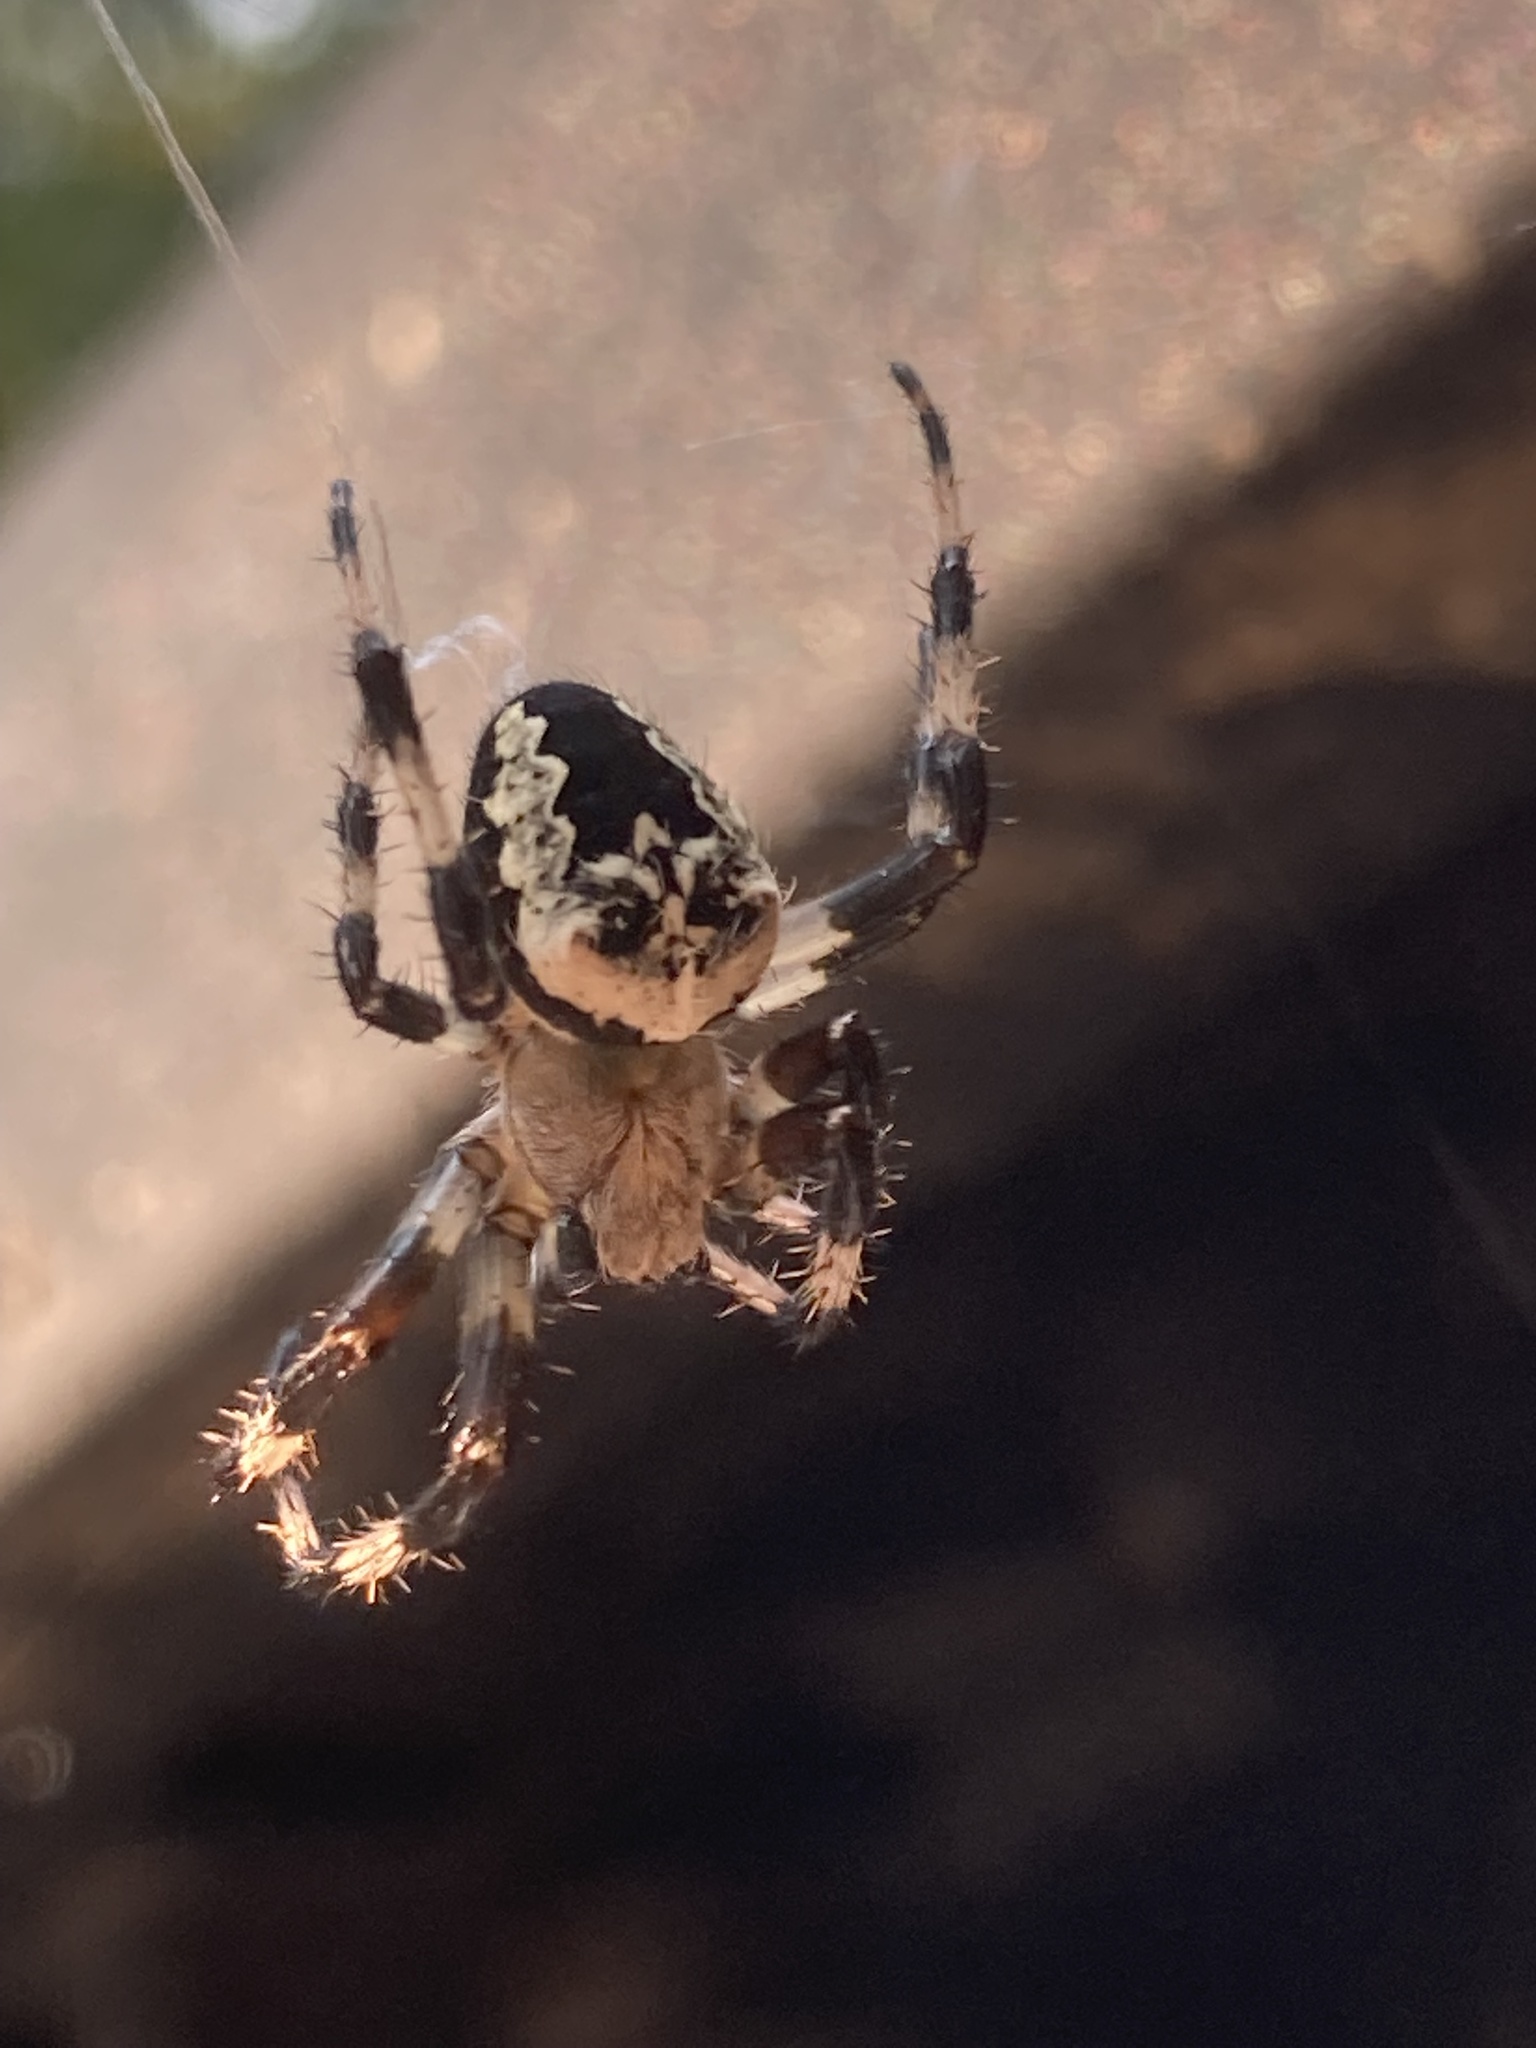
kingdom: Animalia
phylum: Arthropoda
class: Arachnida
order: Araneae
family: Araneidae
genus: Araneus
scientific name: Araneus nordmanni
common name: Nordmann's orbweaver
